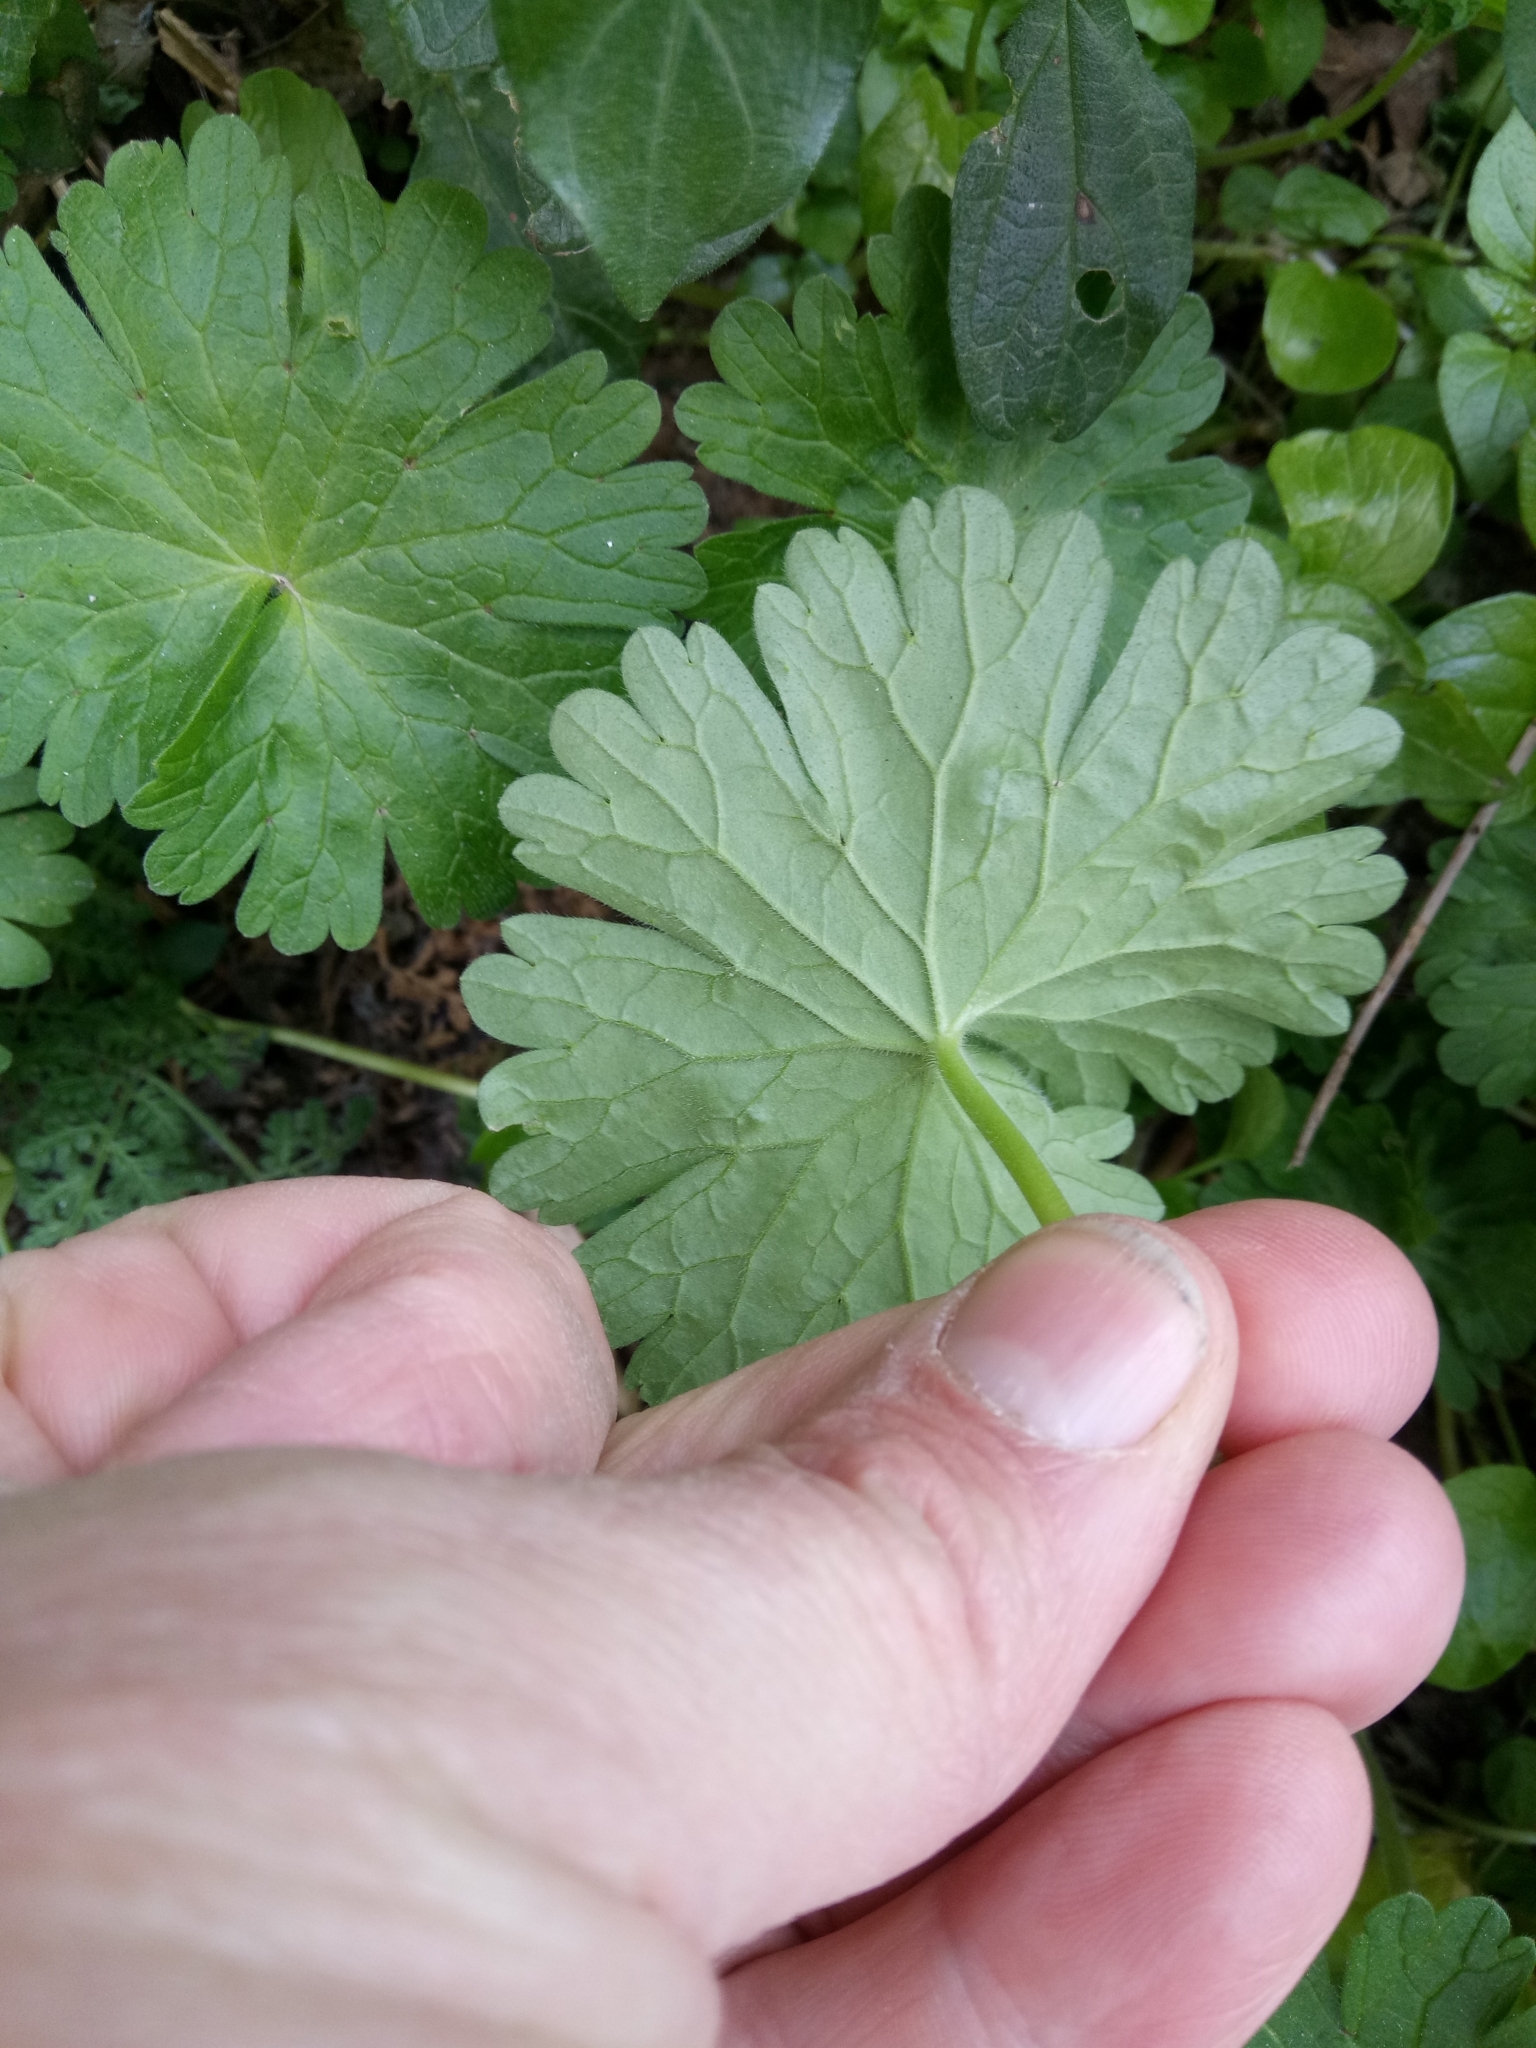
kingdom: Plantae
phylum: Tracheophyta
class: Magnoliopsida
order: Geraniales
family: Geraniaceae
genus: Geranium
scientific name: Geranium rotundifolium
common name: Round-leaved crane's-bill
